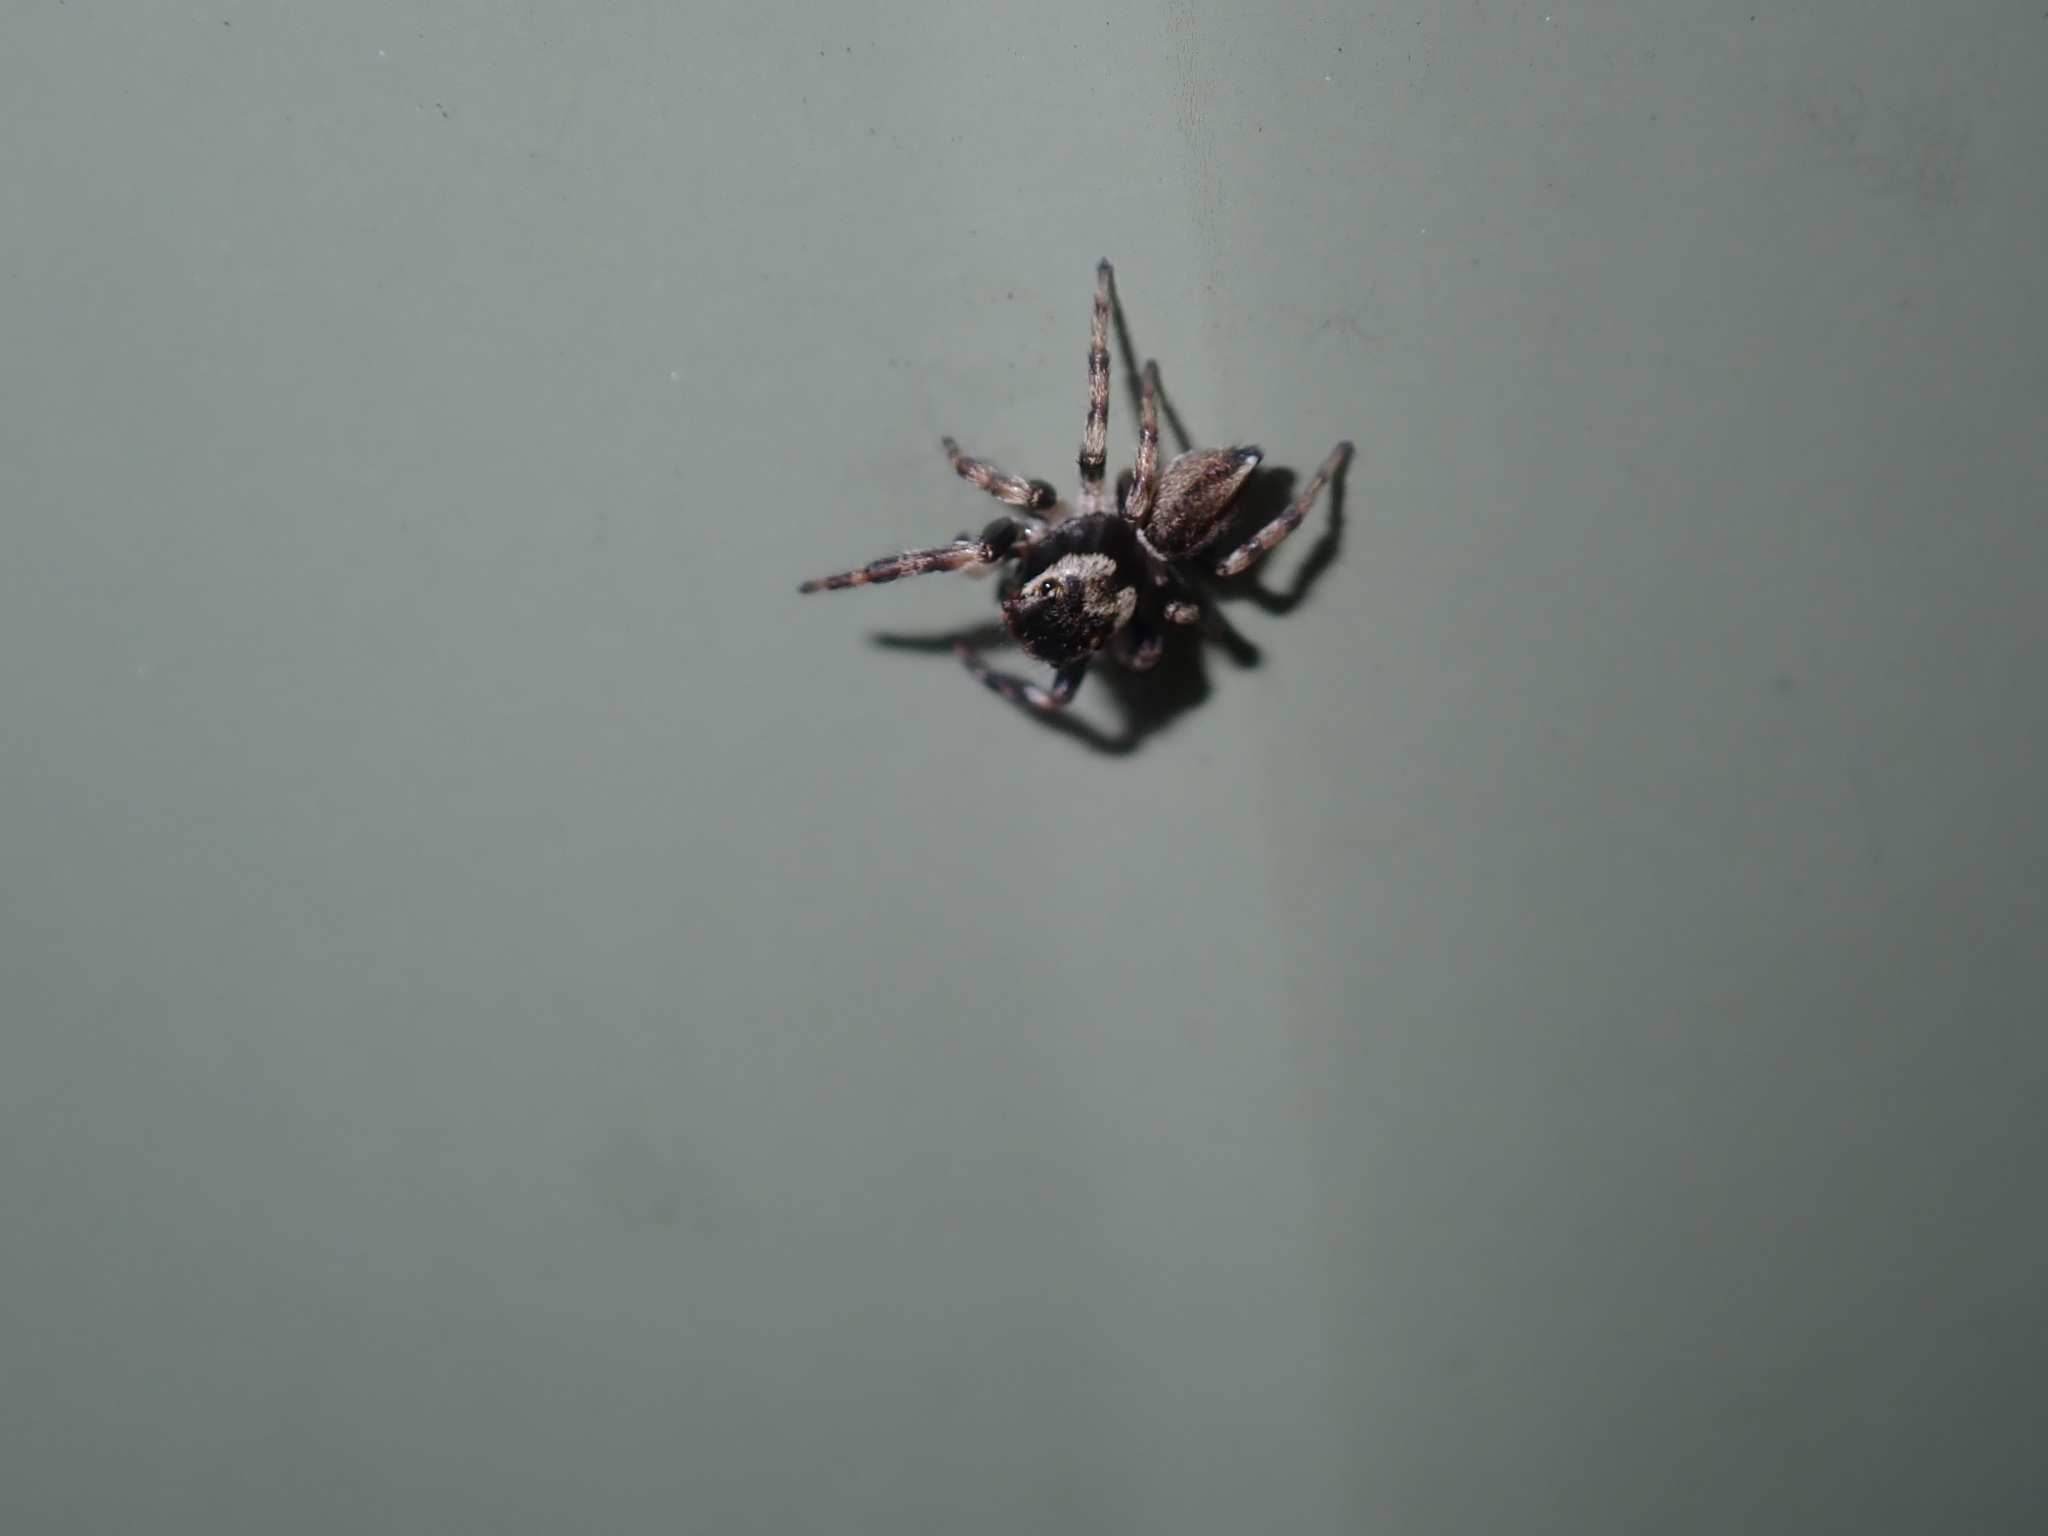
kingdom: Animalia
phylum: Arthropoda
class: Arachnida
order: Araneae
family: Salticidae
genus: Maratus
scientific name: Maratus scutulatus
